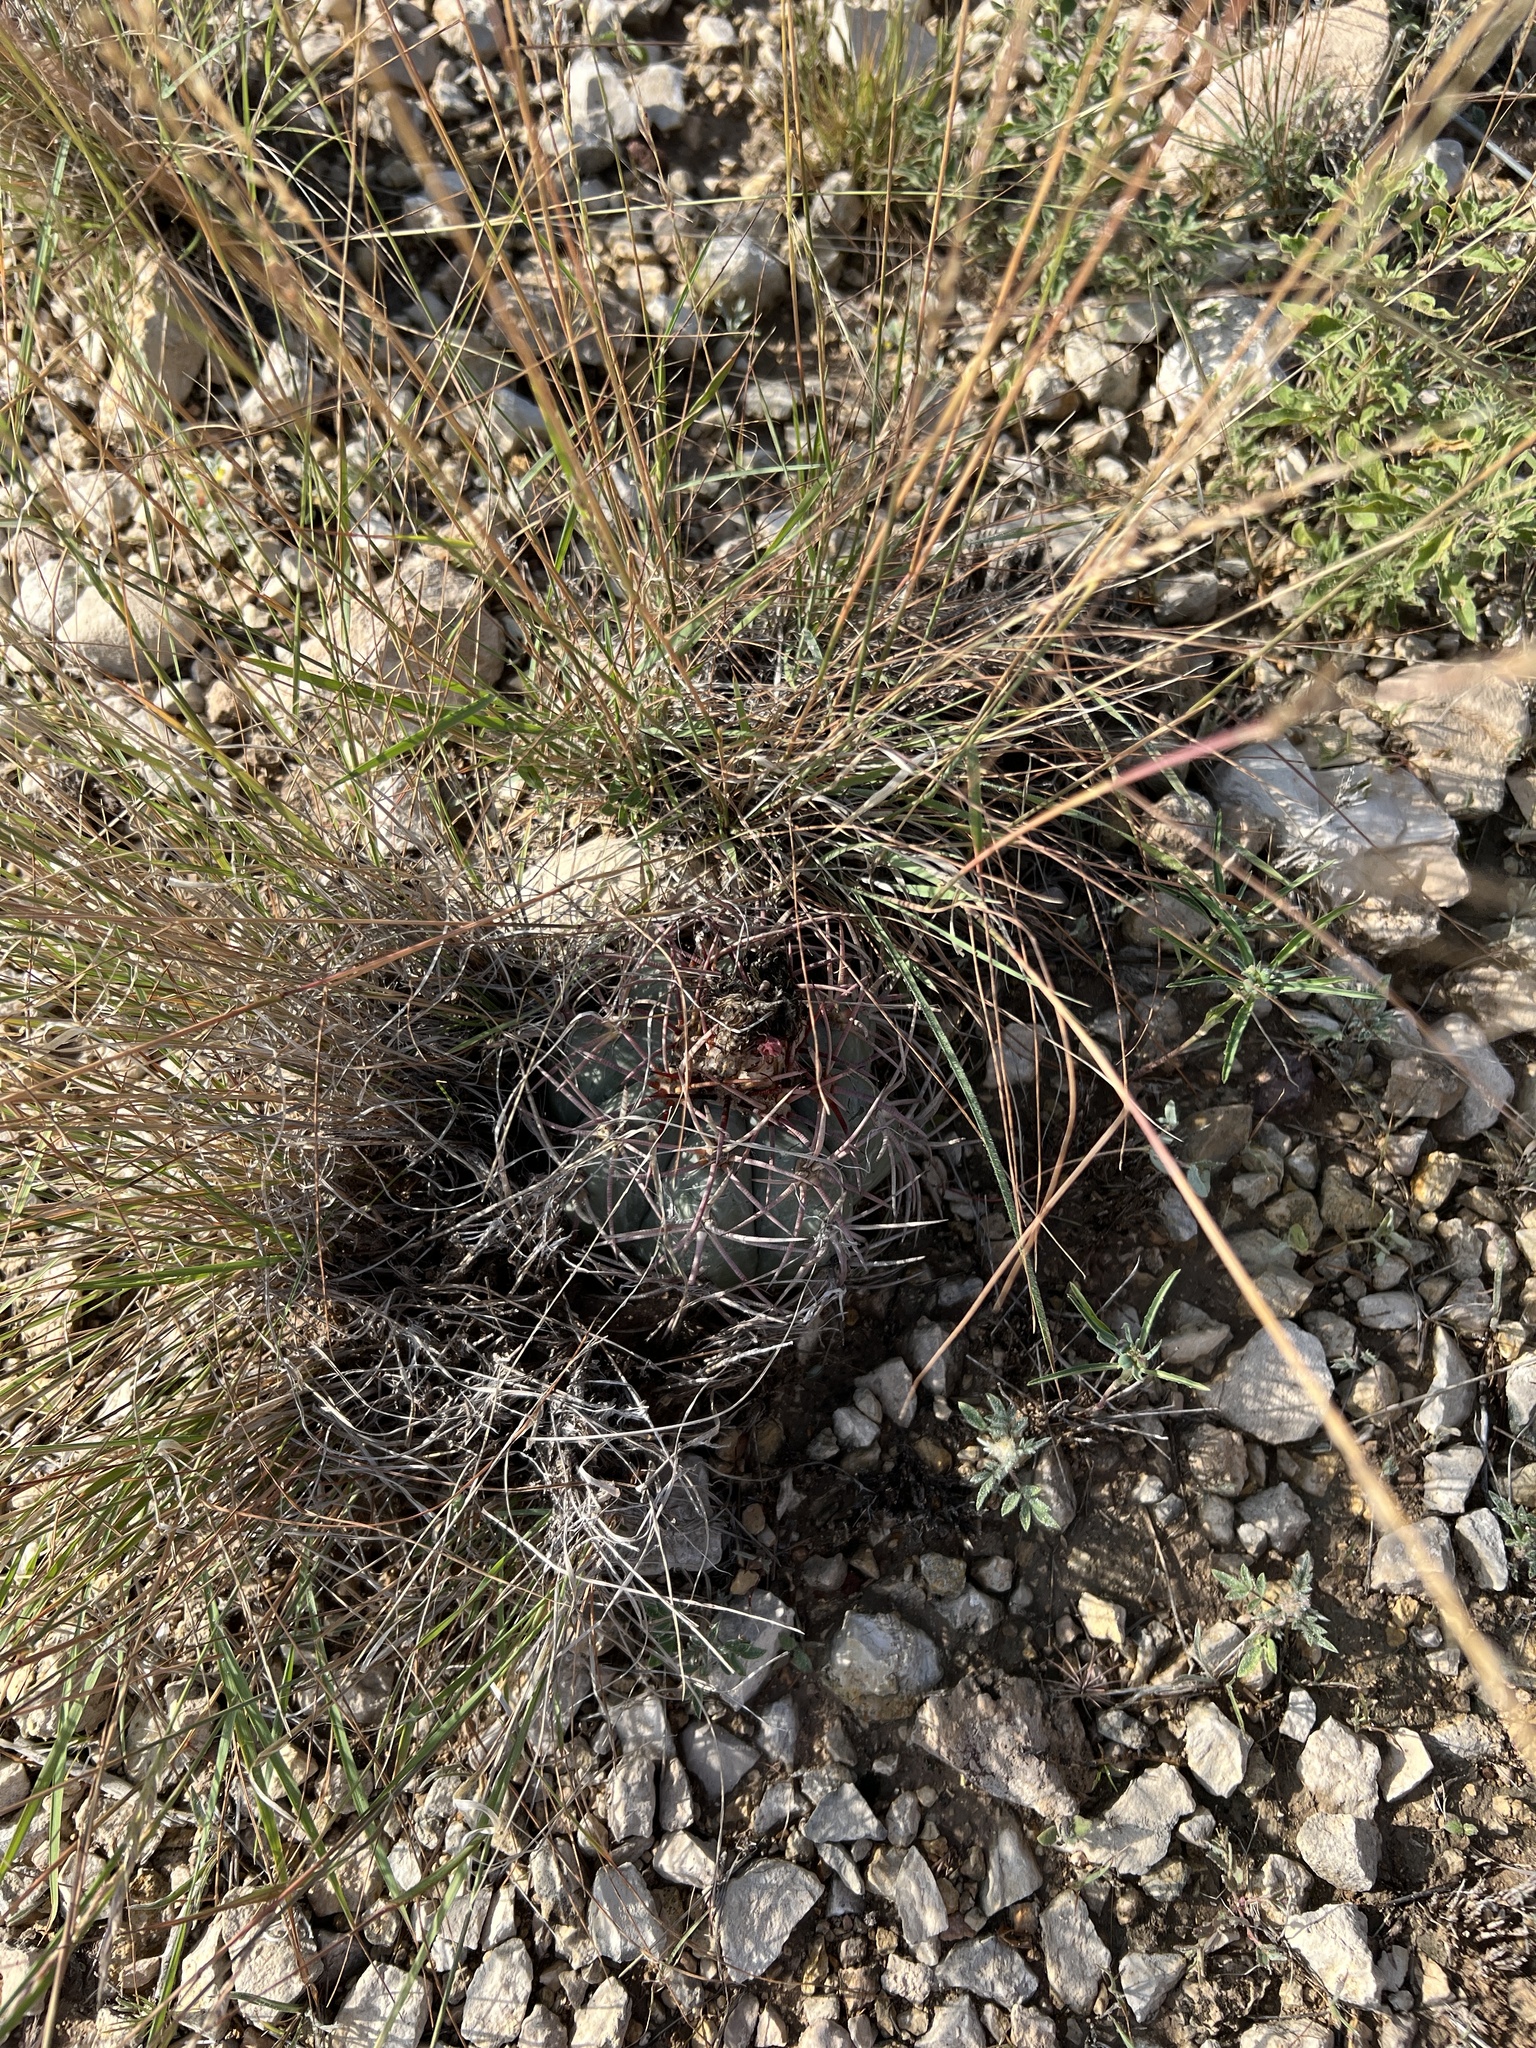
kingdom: Plantae
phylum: Tracheophyta
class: Magnoliopsida
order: Caryophyllales
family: Cactaceae
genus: Echinocactus
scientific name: Echinocactus horizonthalonius
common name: Devilshead
